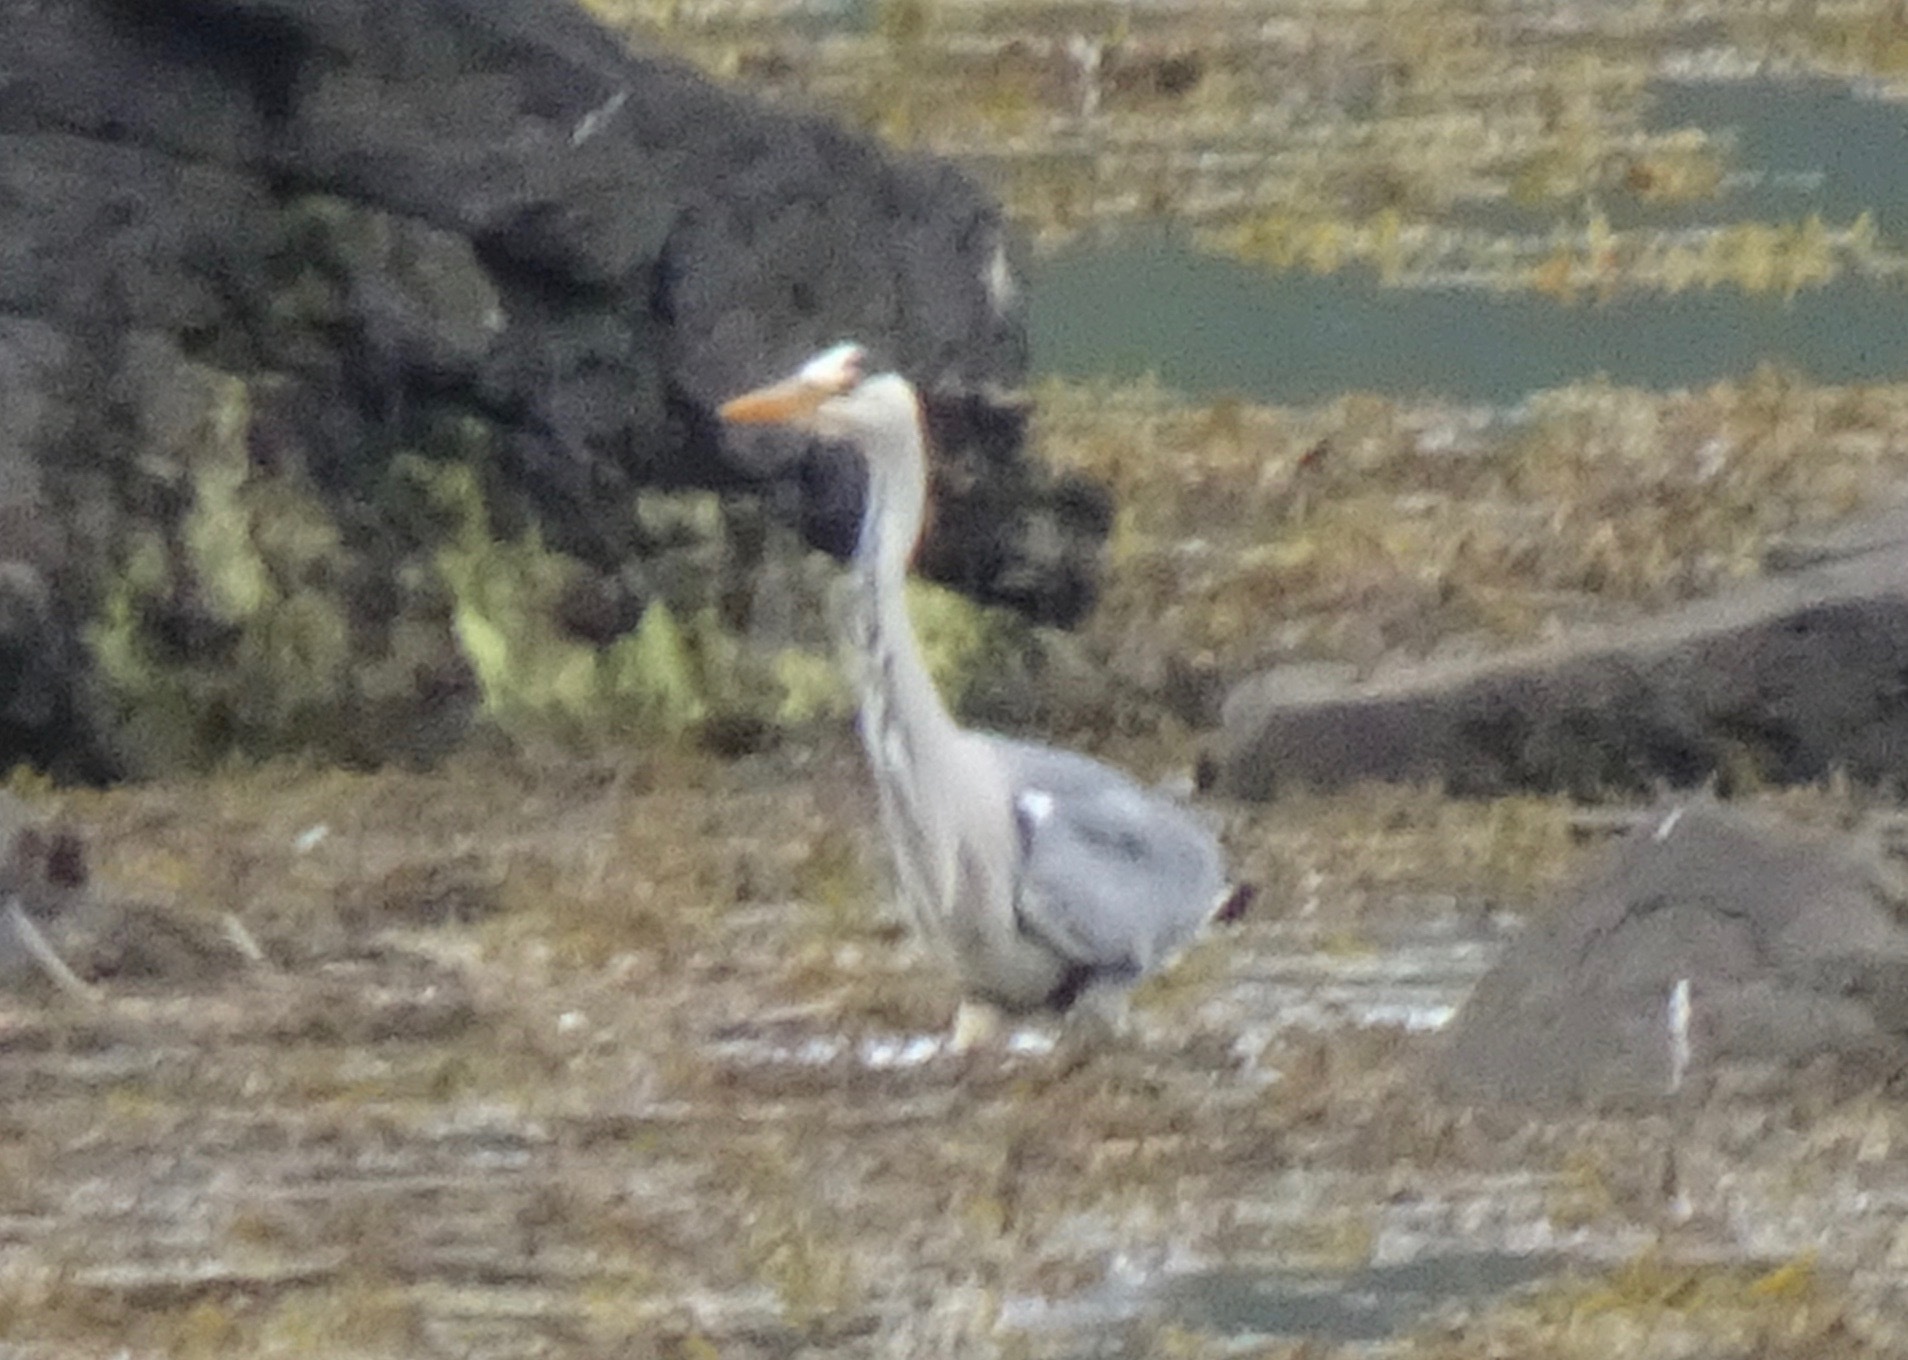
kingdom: Animalia
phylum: Chordata
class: Aves
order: Pelecaniformes
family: Ardeidae
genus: Ardea
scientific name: Ardea cinerea
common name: Grey heron
